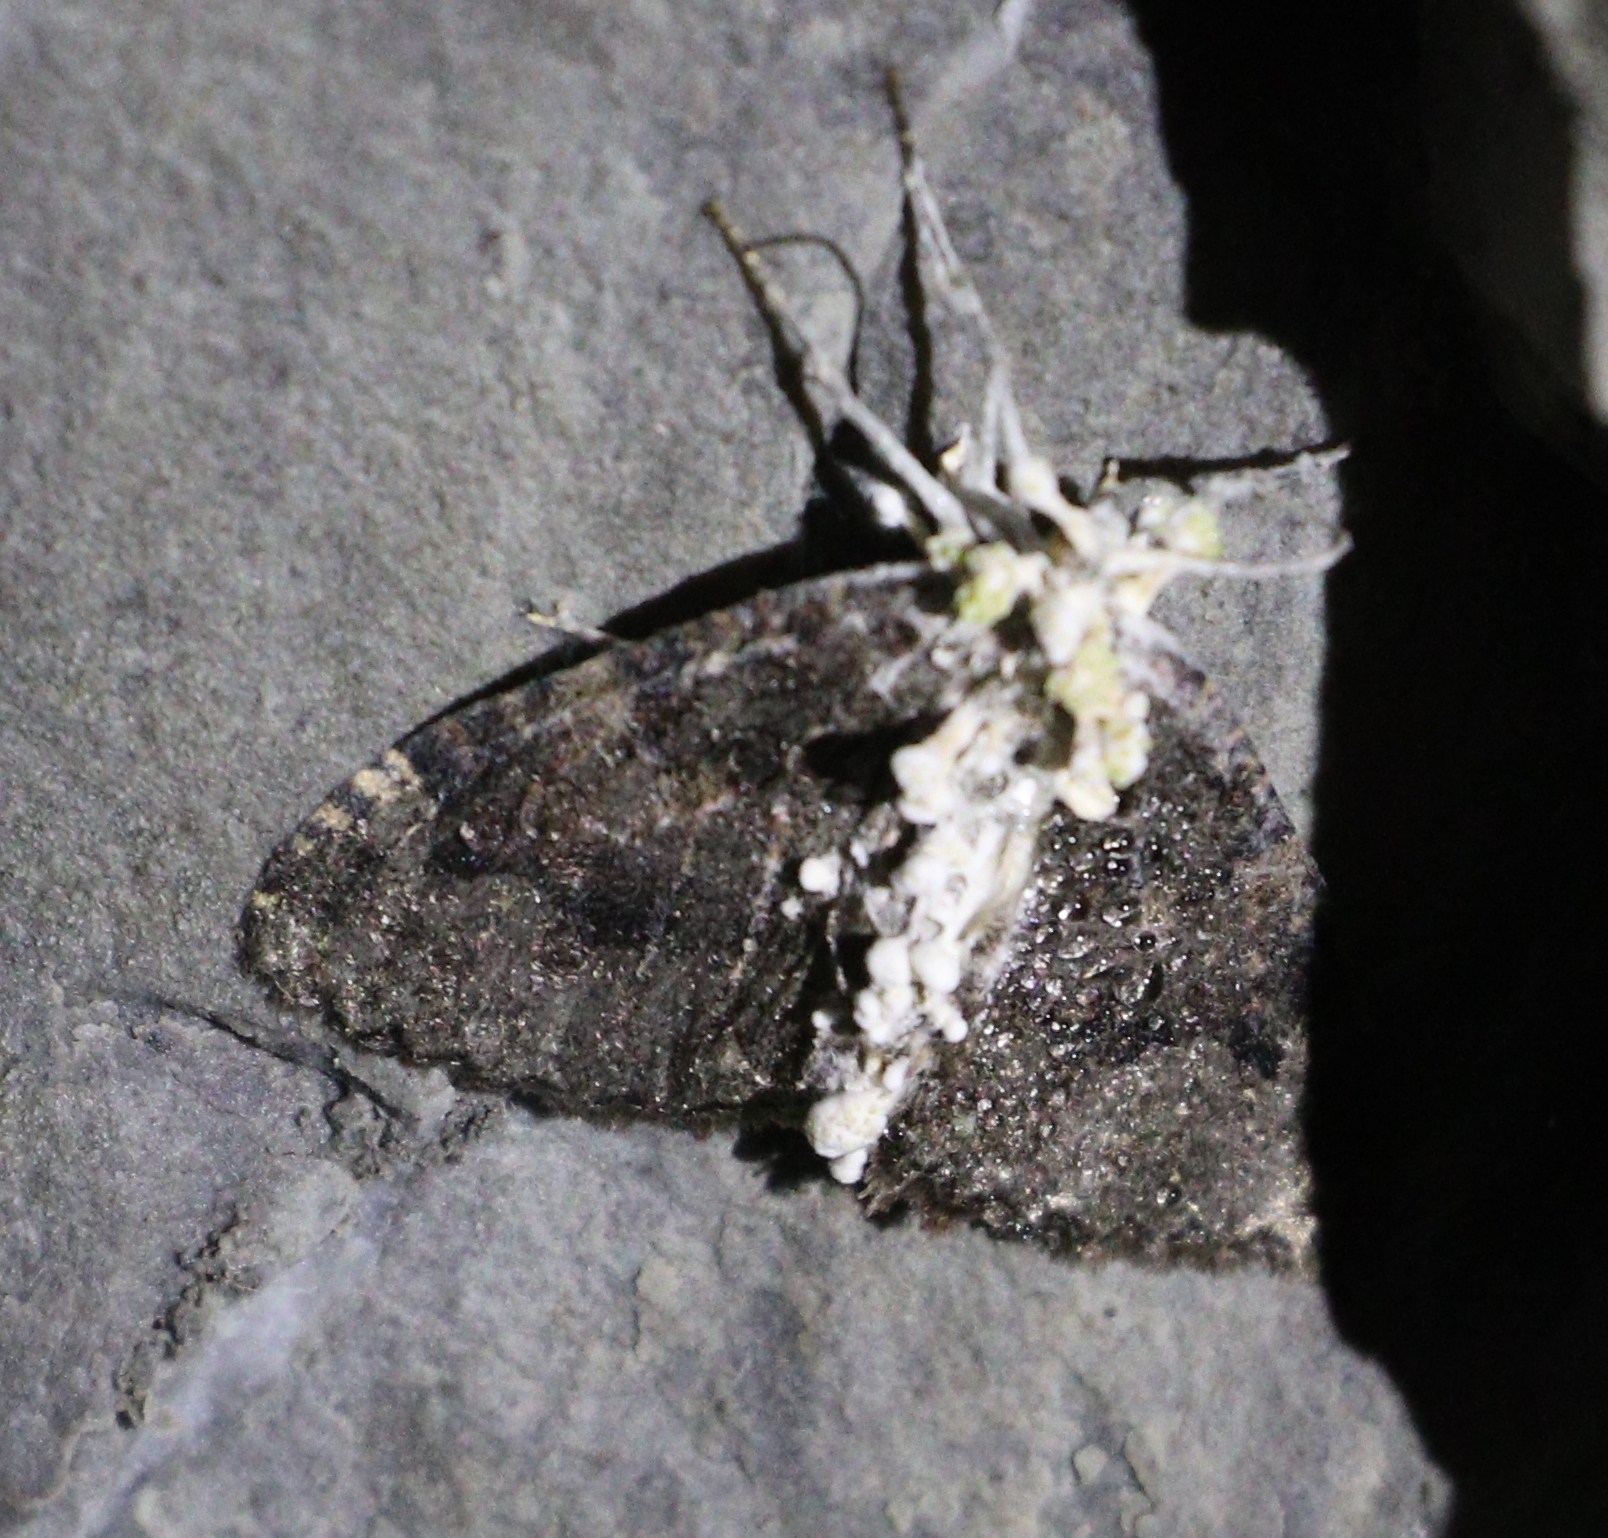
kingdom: Animalia
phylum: Arthropoda
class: Insecta
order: Lepidoptera
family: Geometridae
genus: Triphosa
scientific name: Triphosa dubitata
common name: Tissue
